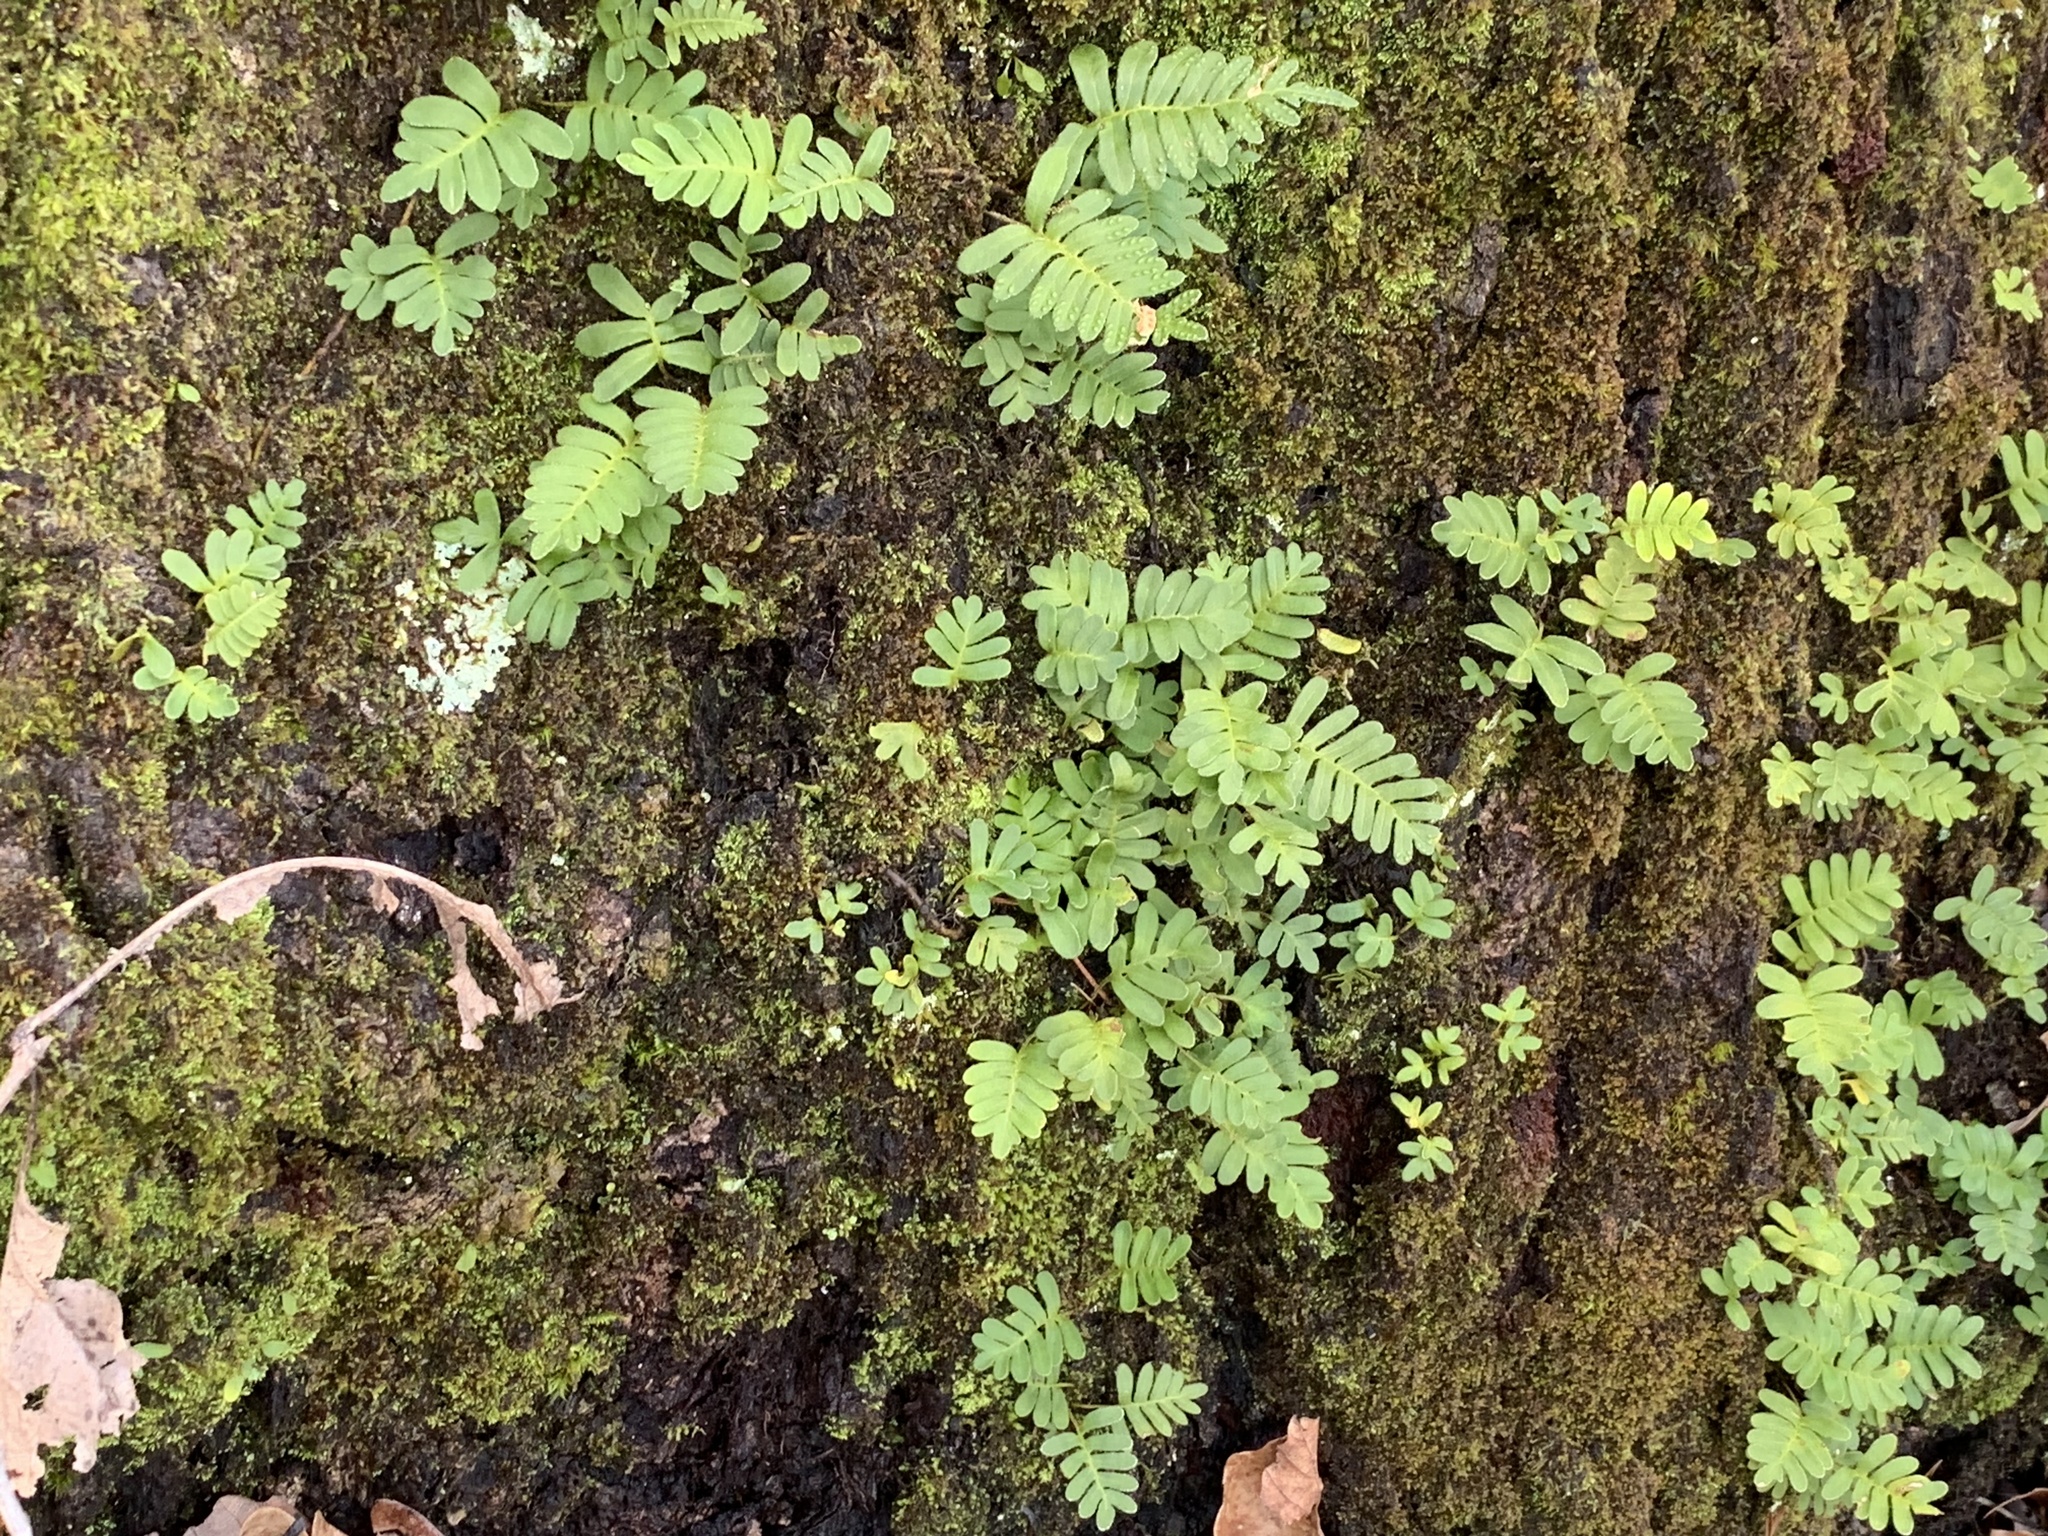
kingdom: Plantae
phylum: Tracheophyta
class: Polypodiopsida
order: Polypodiales
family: Polypodiaceae
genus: Pleopeltis
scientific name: Pleopeltis michauxiana
